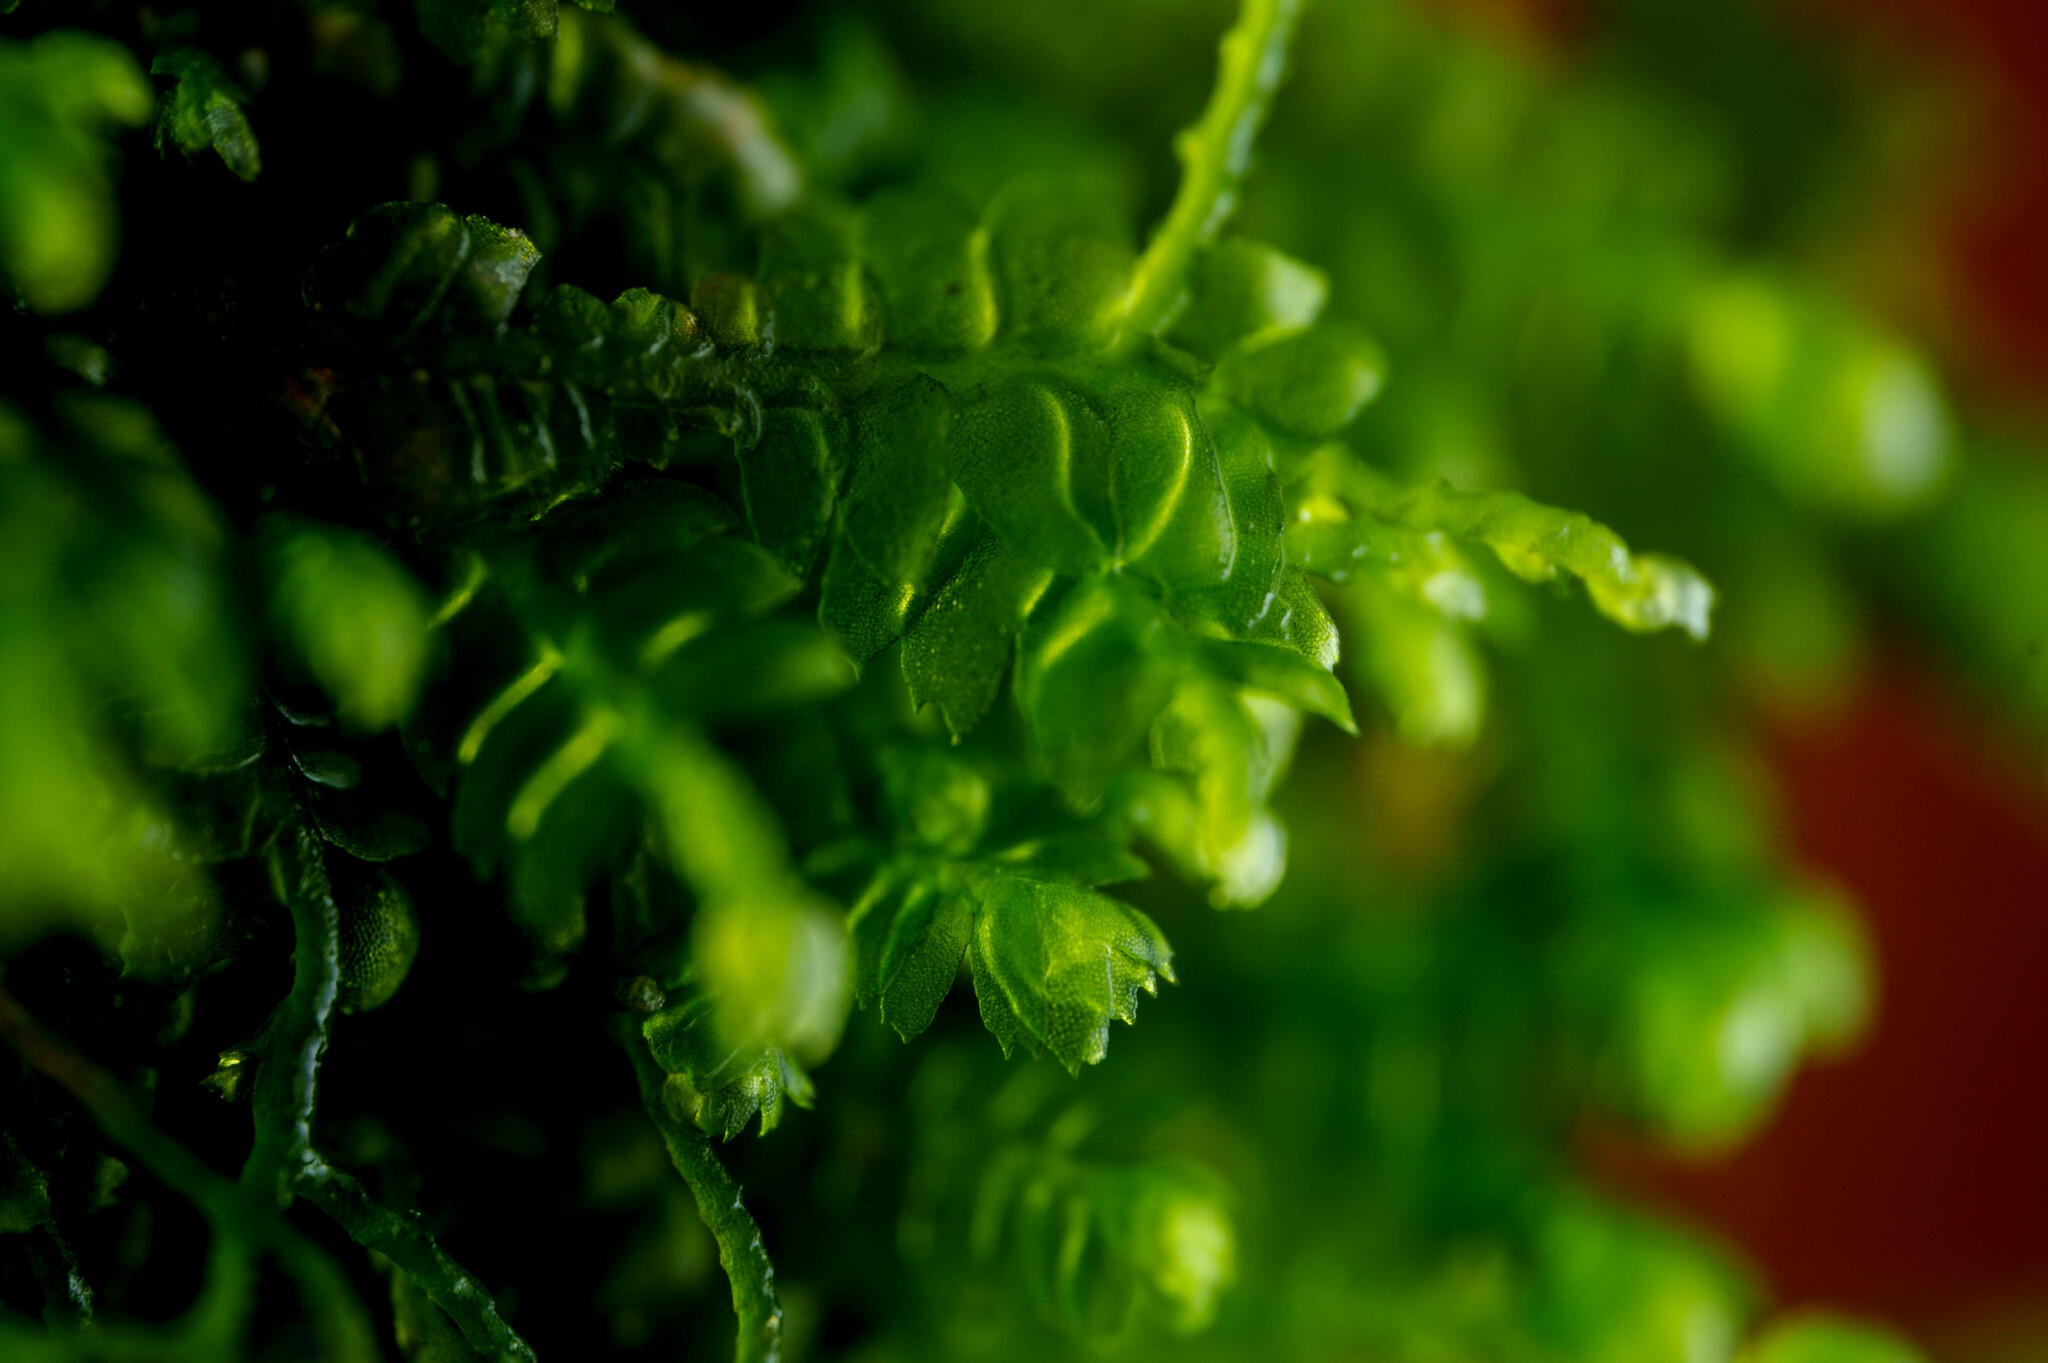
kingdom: Plantae
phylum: Marchantiophyta
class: Jungermanniopsida
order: Jungermanniales
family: Lepidoziaceae
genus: Bazzania
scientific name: Bazzania denudata
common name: Naked whipwort
